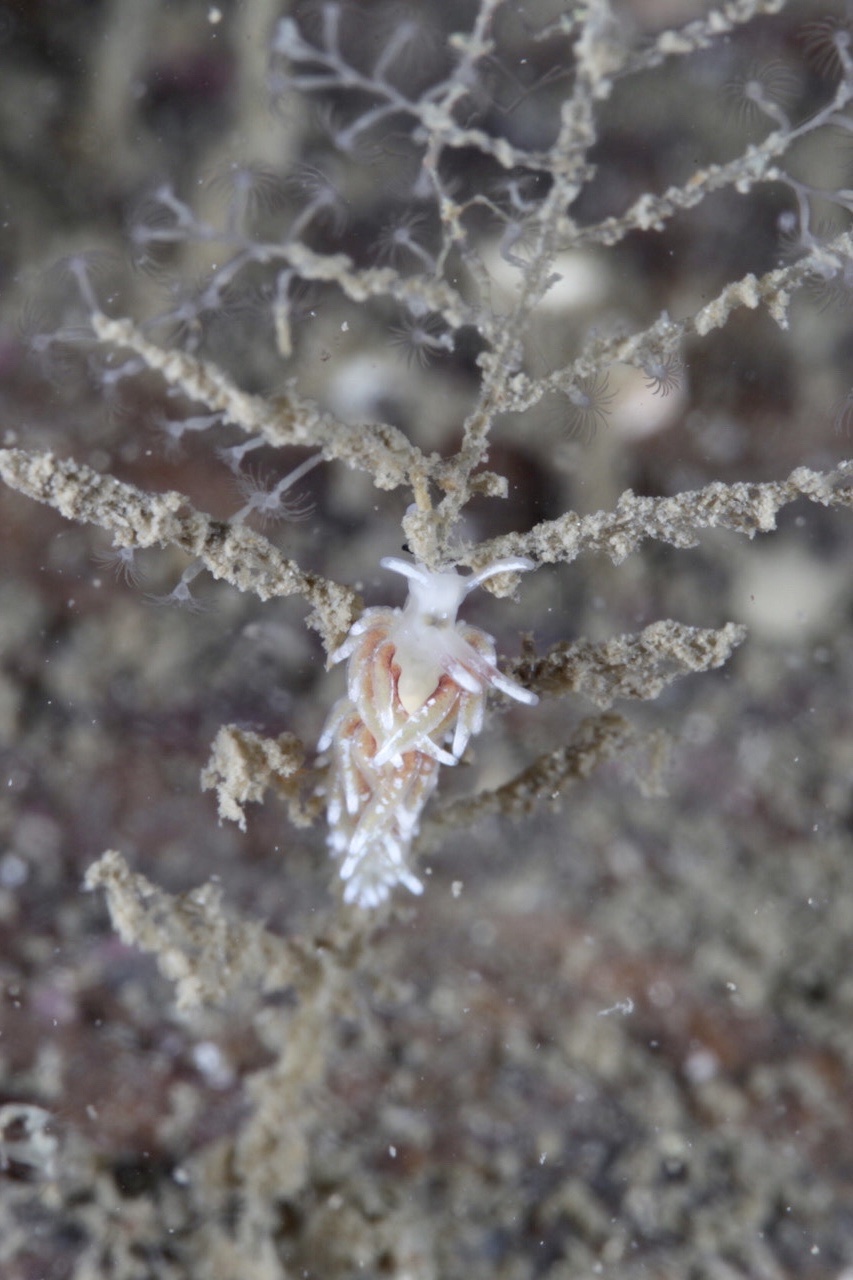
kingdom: Animalia
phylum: Mollusca
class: Gastropoda
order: Nudibranchia
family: Trinchesiidae
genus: Rubramoena
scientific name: Rubramoena rubescens
